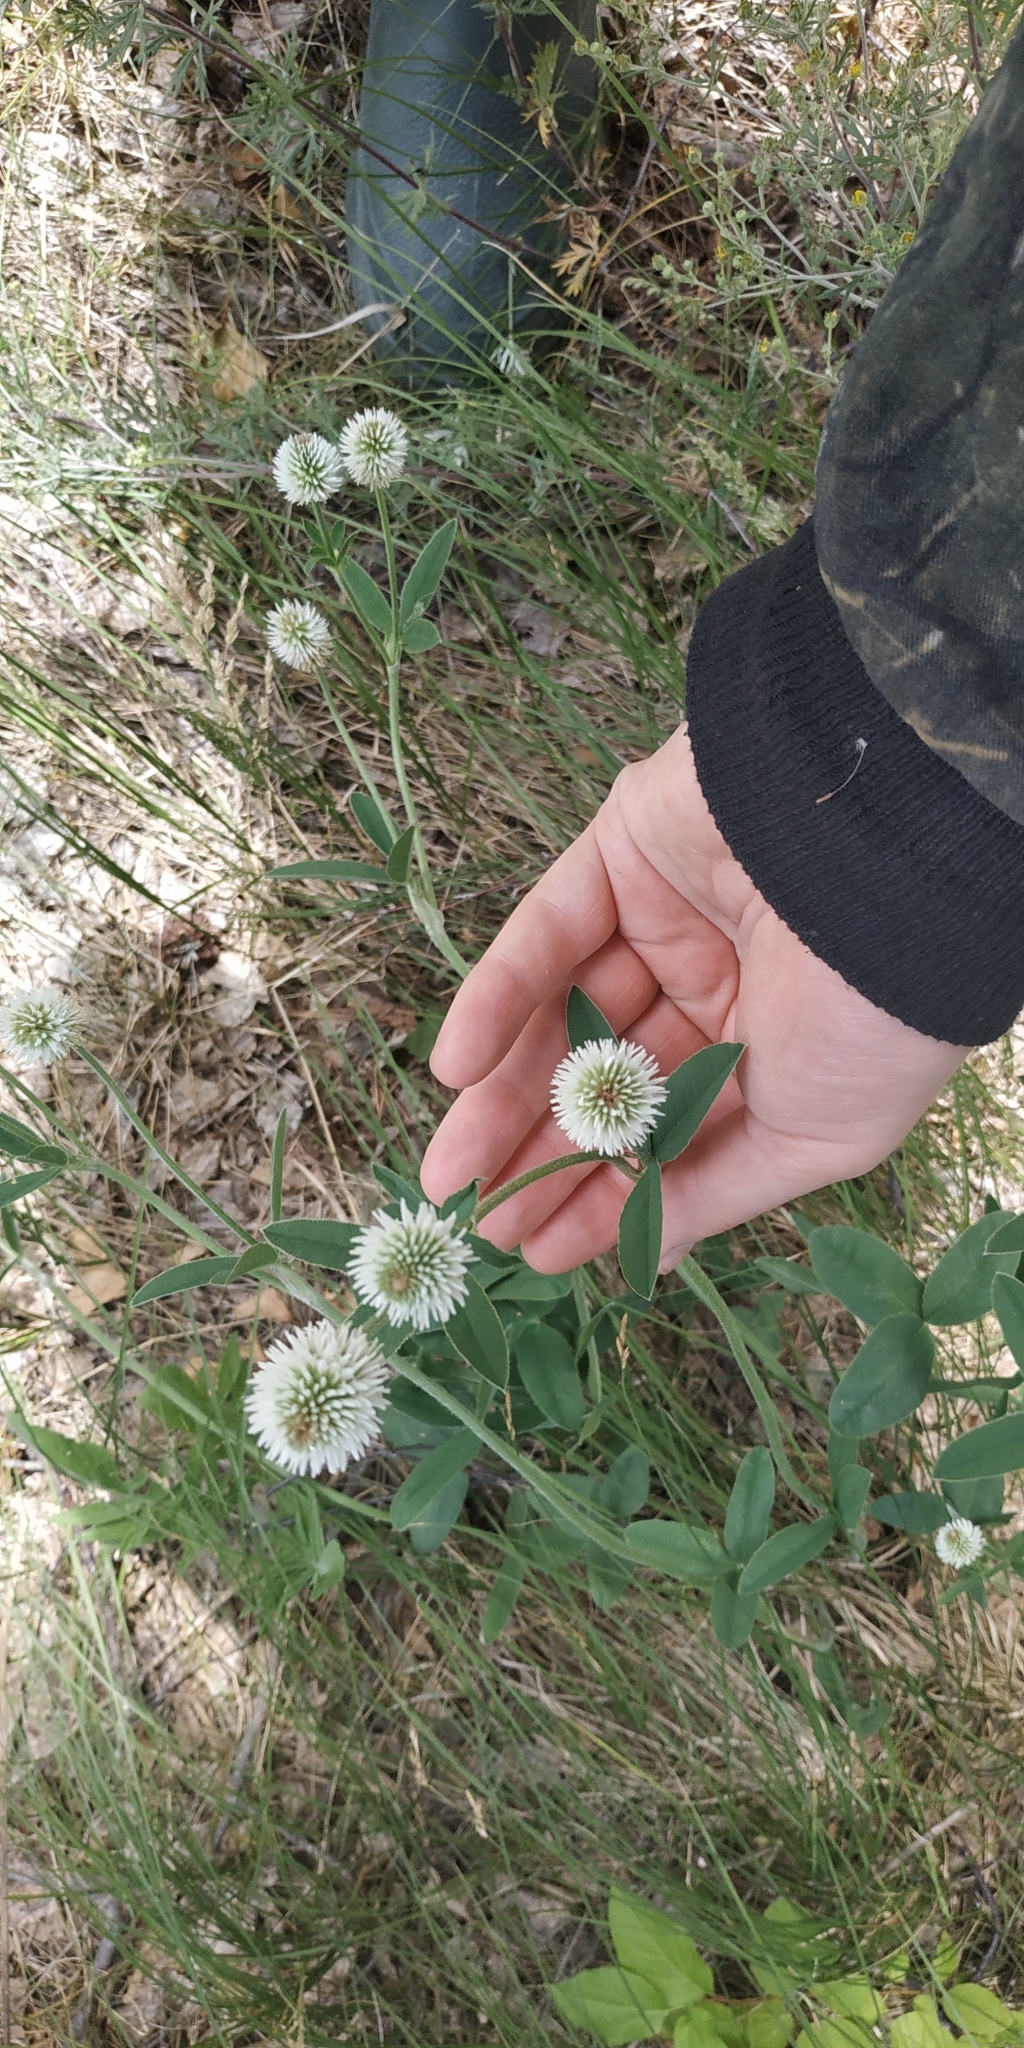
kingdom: Plantae
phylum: Tracheophyta
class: Magnoliopsida
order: Fabales
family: Fabaceae
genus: Trifolium
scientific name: Trifolium montanum
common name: Mountain clover
